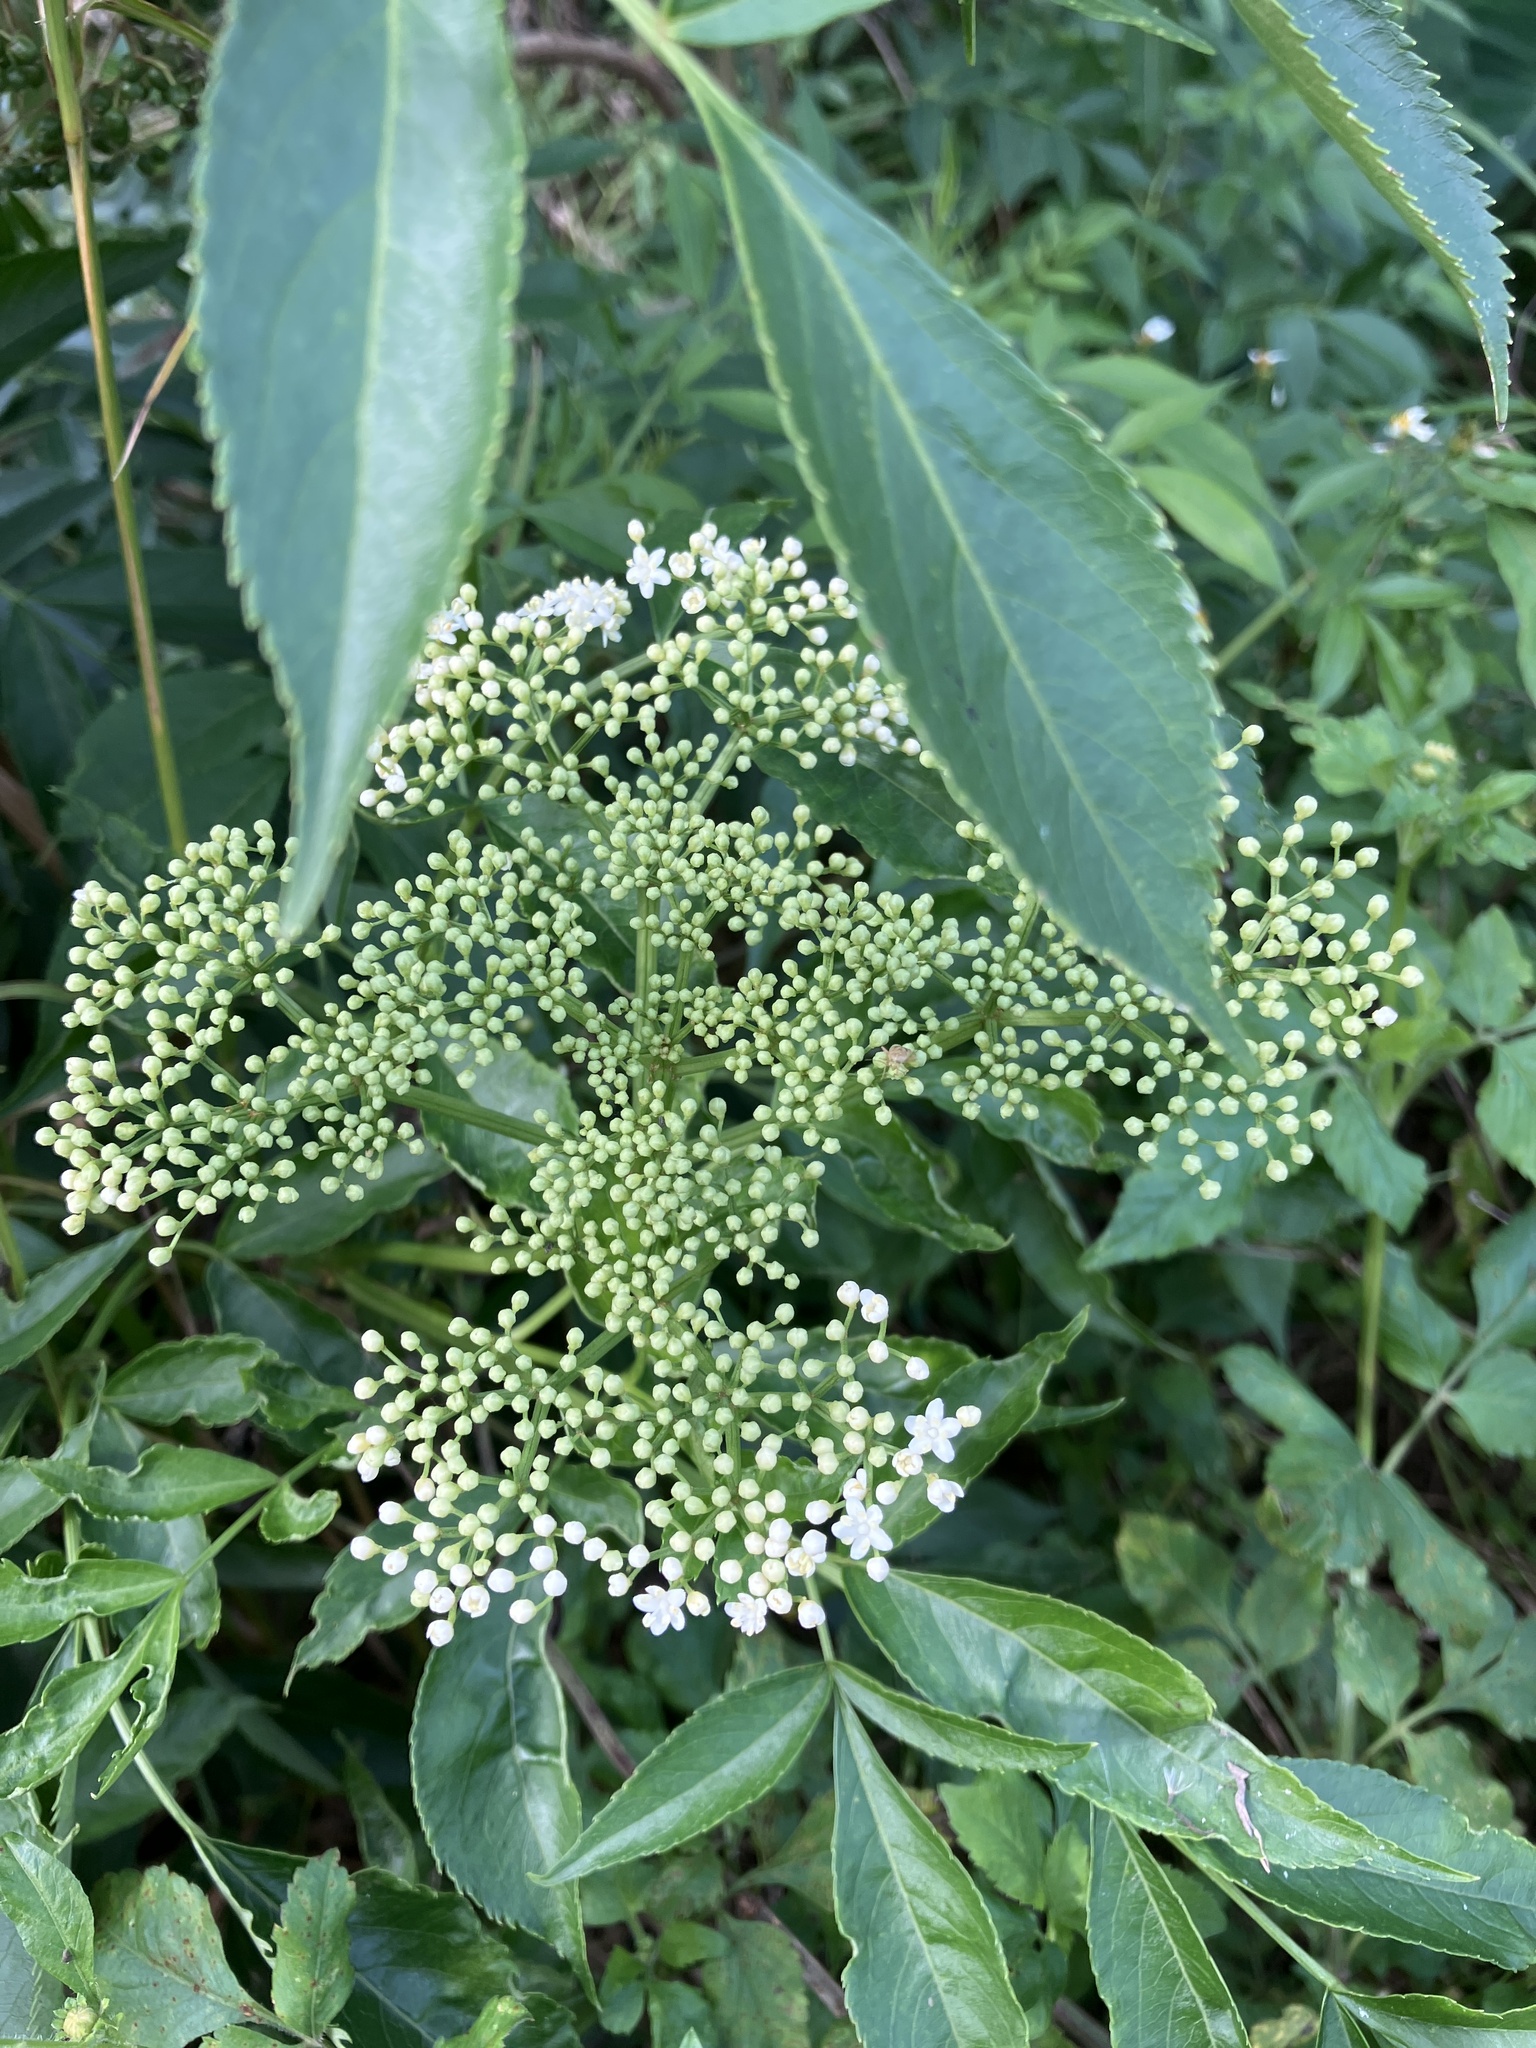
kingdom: Plantae
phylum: Tracheophyta
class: Magnoliopsida
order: Dipsacales
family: Viburnaceae
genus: Sambucus
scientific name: Sambucus canadensis
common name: American elder
